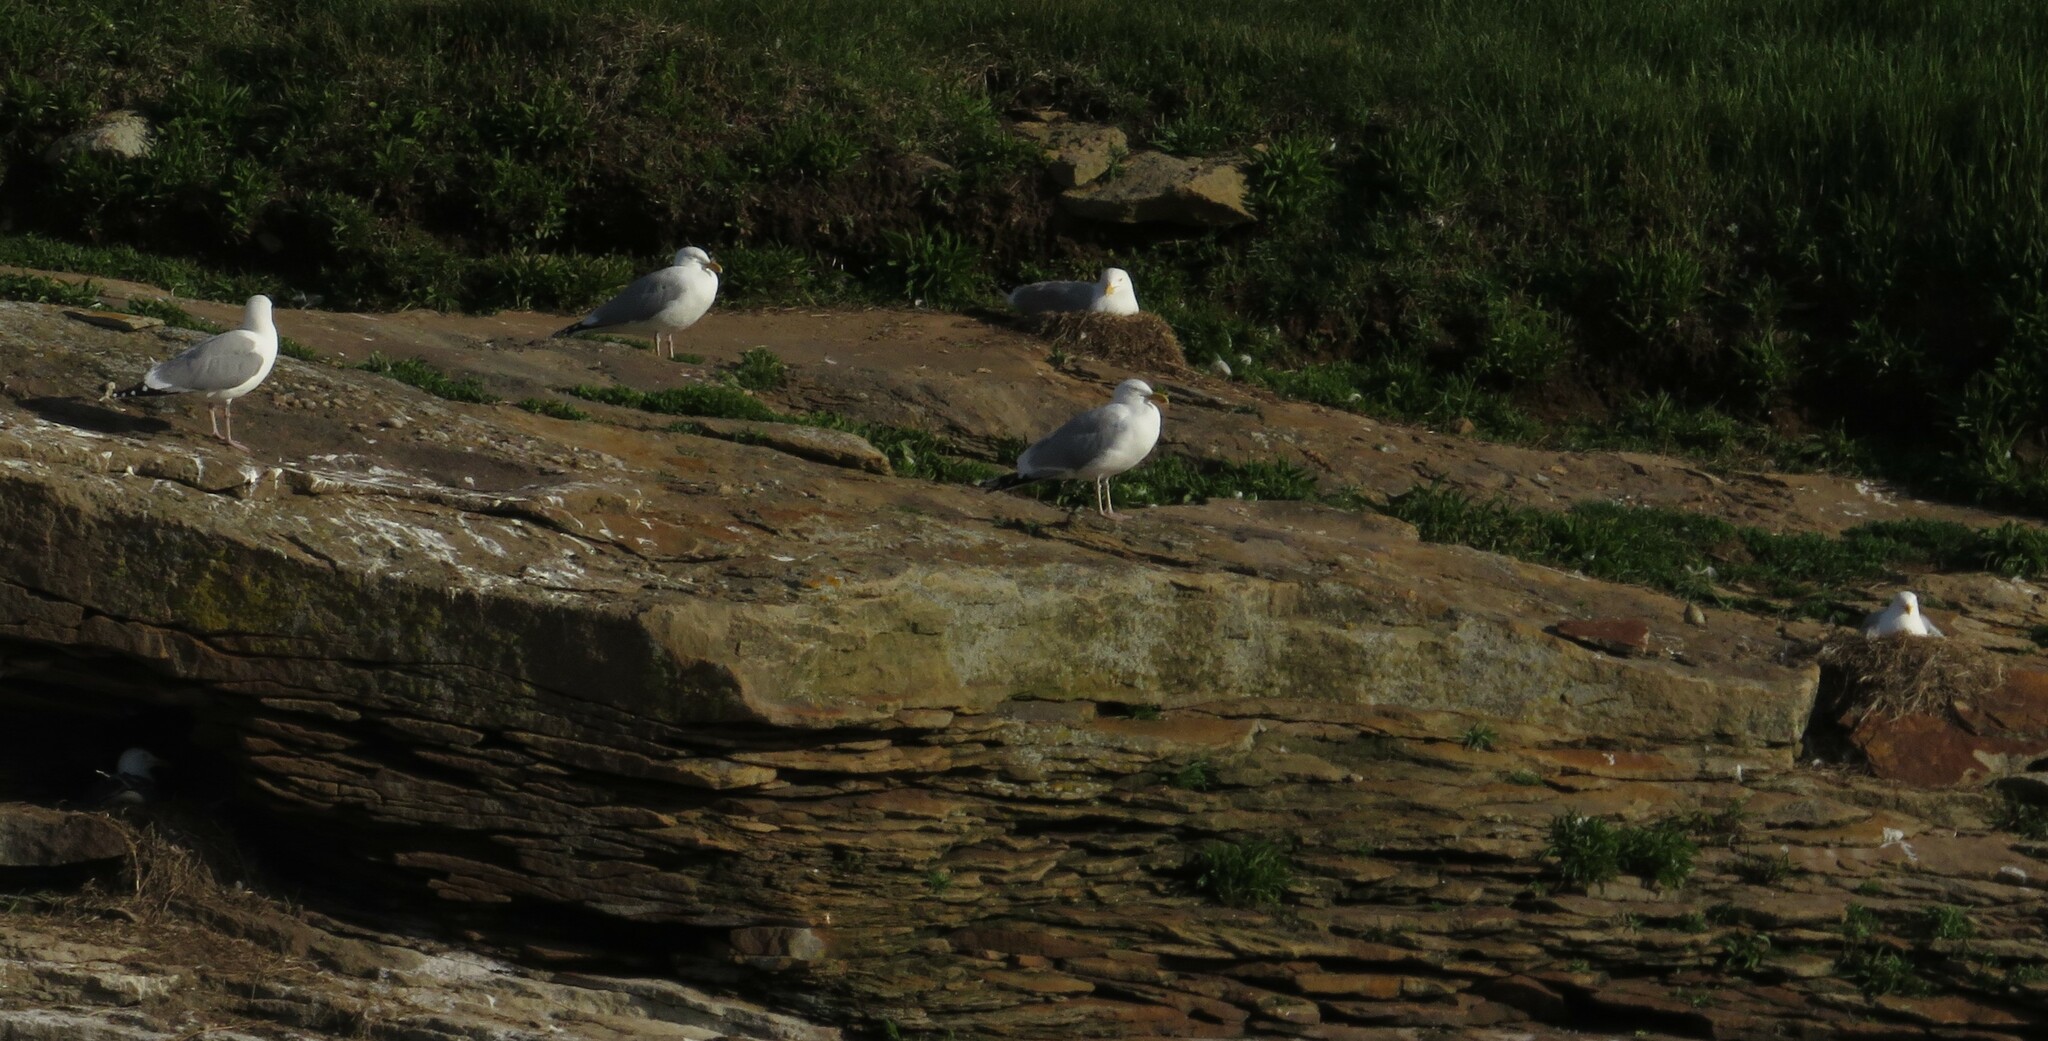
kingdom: Animalia
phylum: Chordata
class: Aves
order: Charadriiformes
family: Laridae
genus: Larus
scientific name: Larus argentatus
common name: Herring gull
